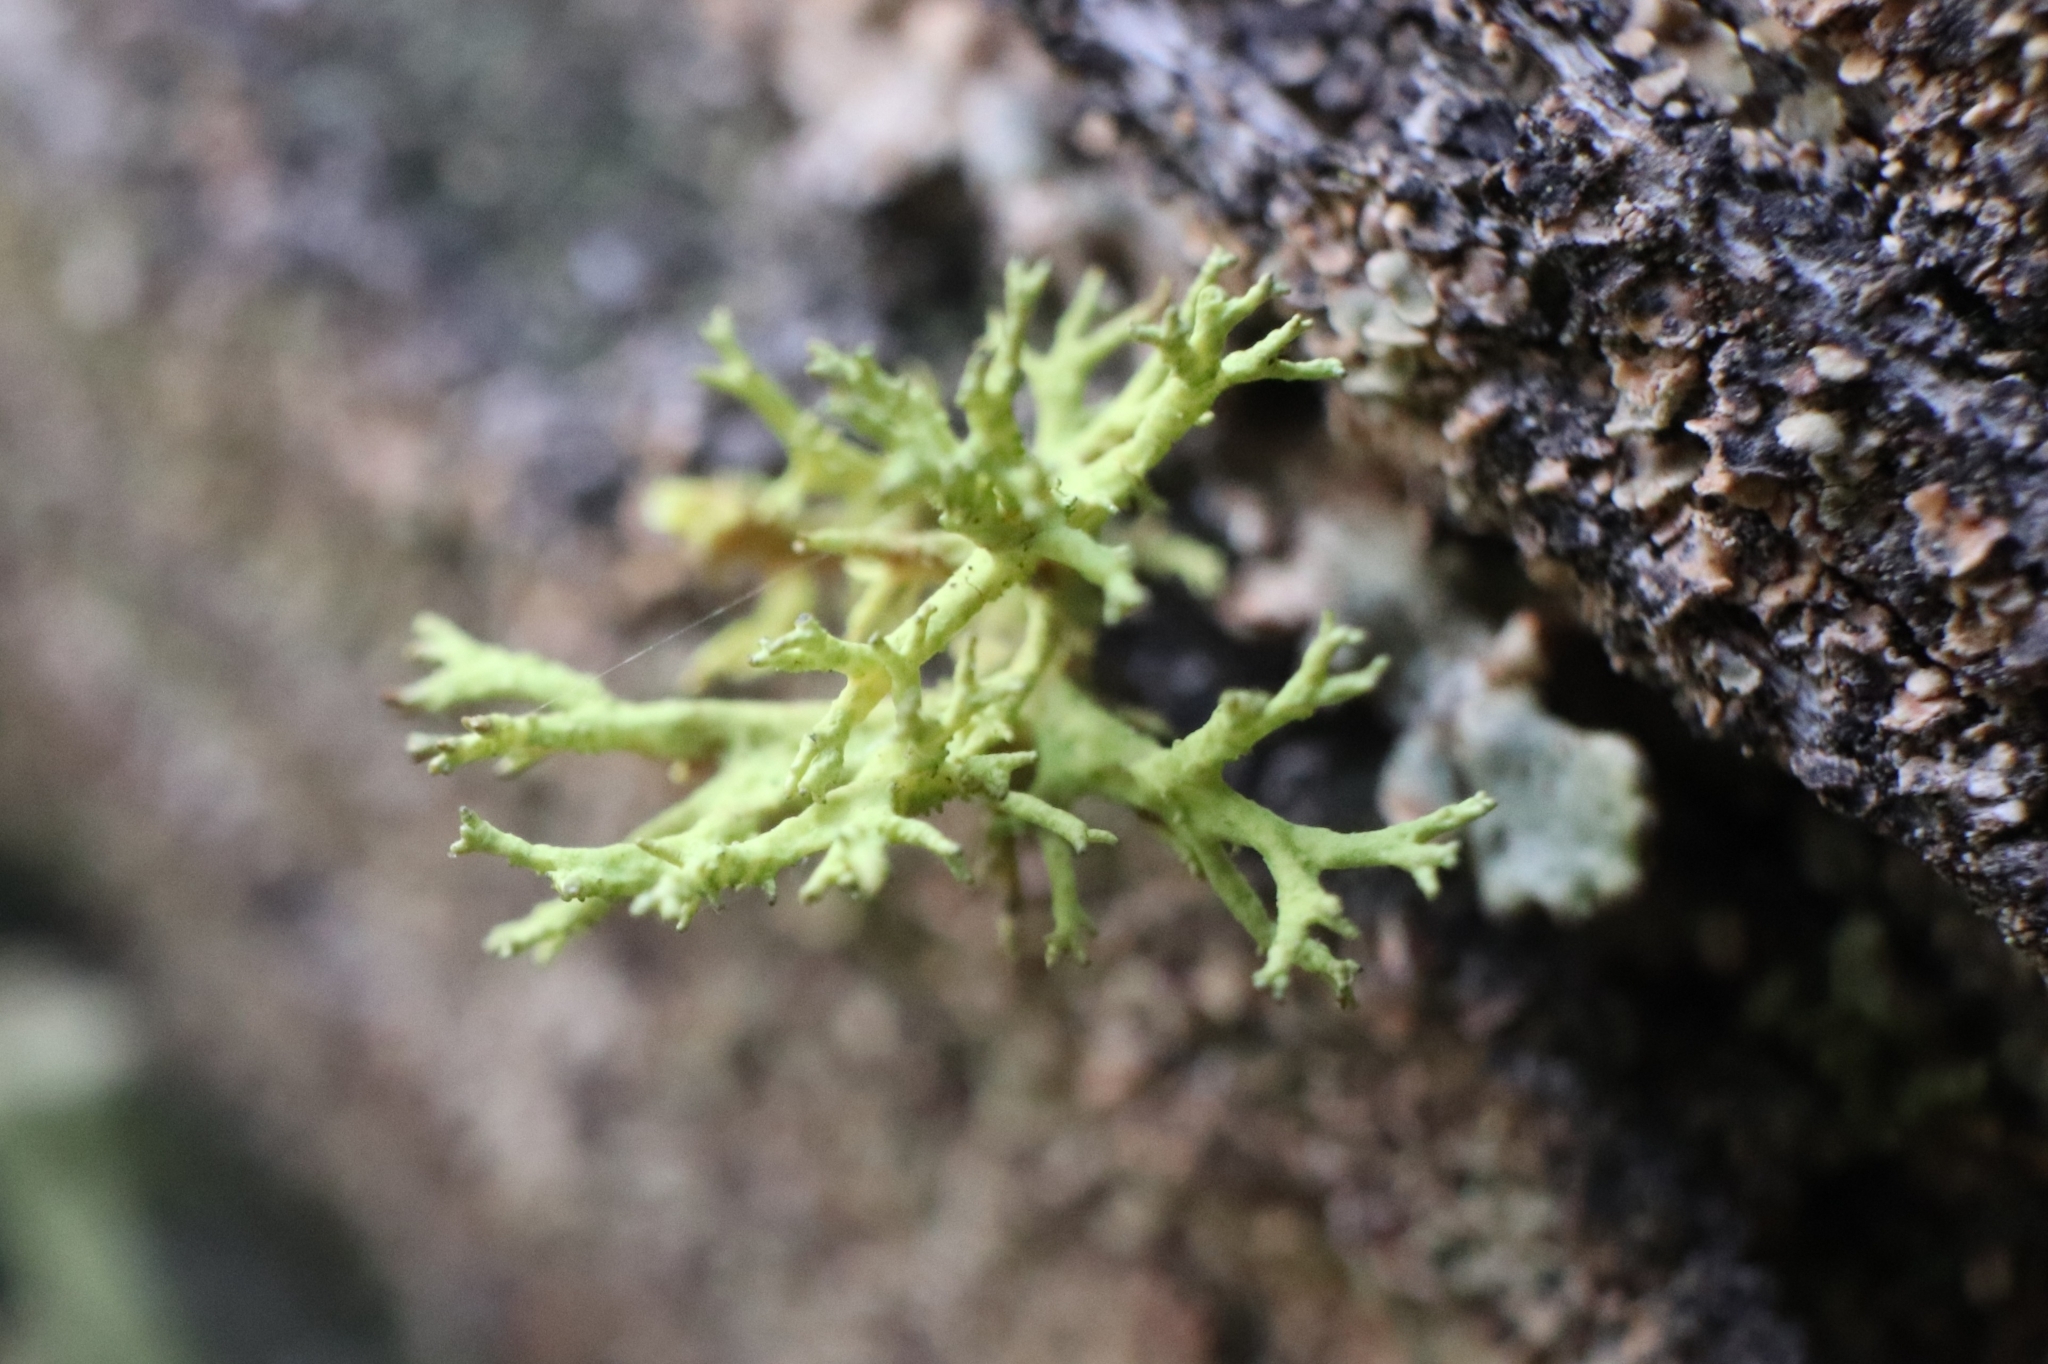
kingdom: Fungi
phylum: Ascomycota
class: Lecanoromycetes
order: Lecanorales
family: Parmeliaceae
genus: Letharia
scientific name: Letharia vulpina
